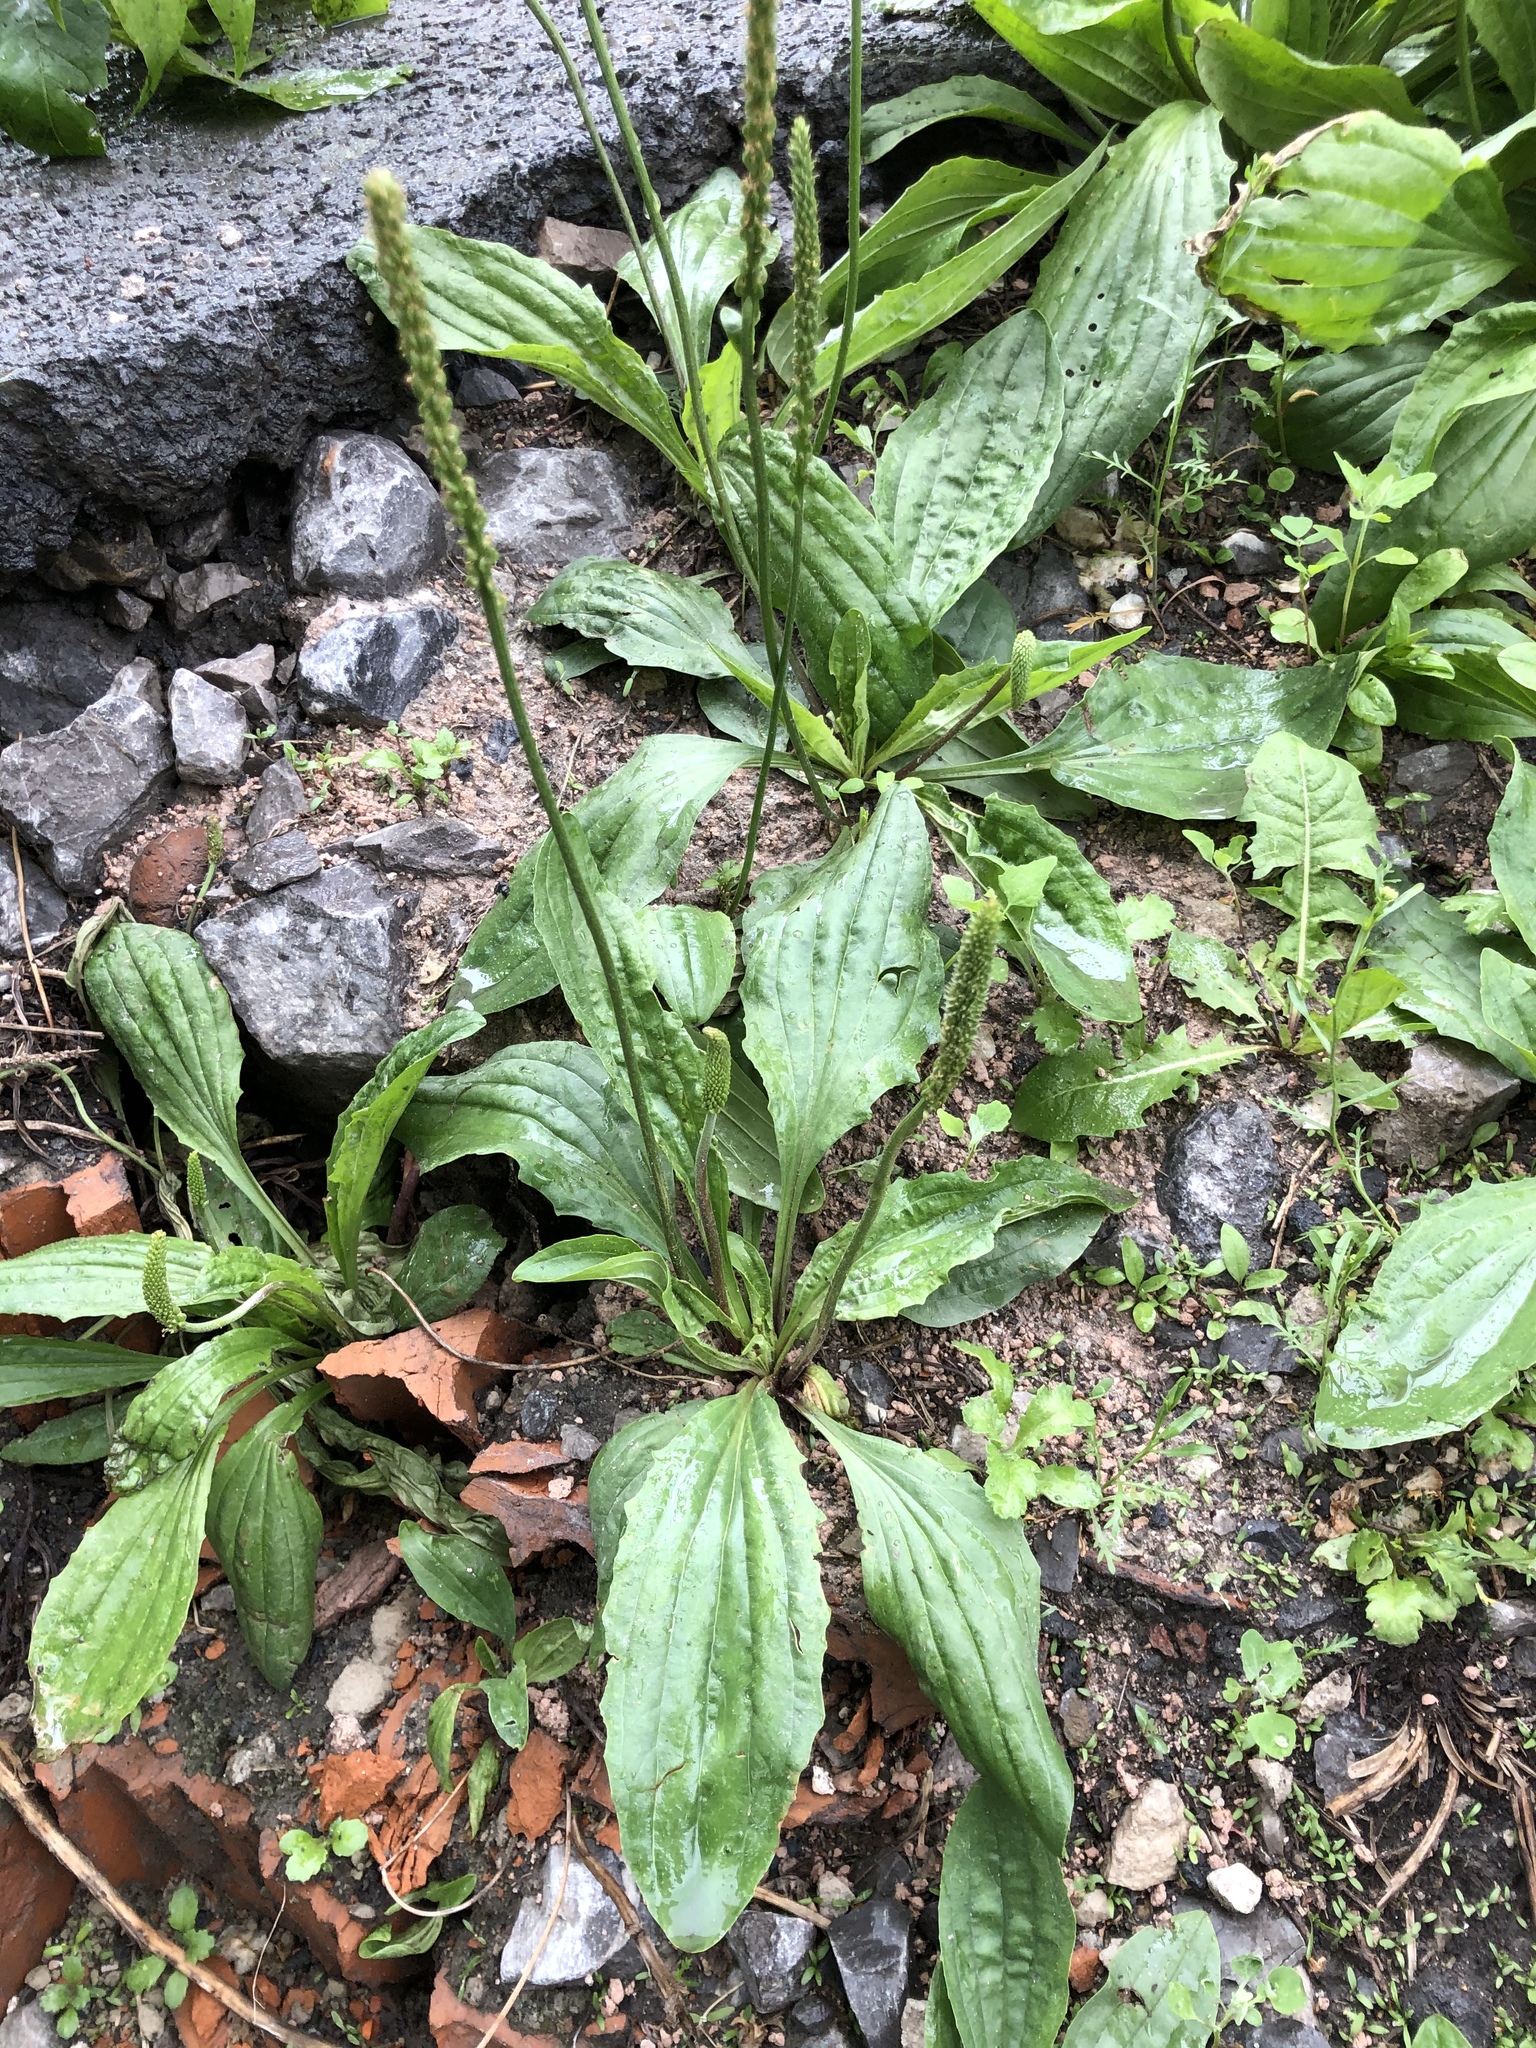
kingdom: Plantae
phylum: Tracheophyta
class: Magnoliopsida
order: Lamiales
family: Plantaginaceae
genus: Plantago
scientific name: Plantago depressa
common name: Depressed plantain
